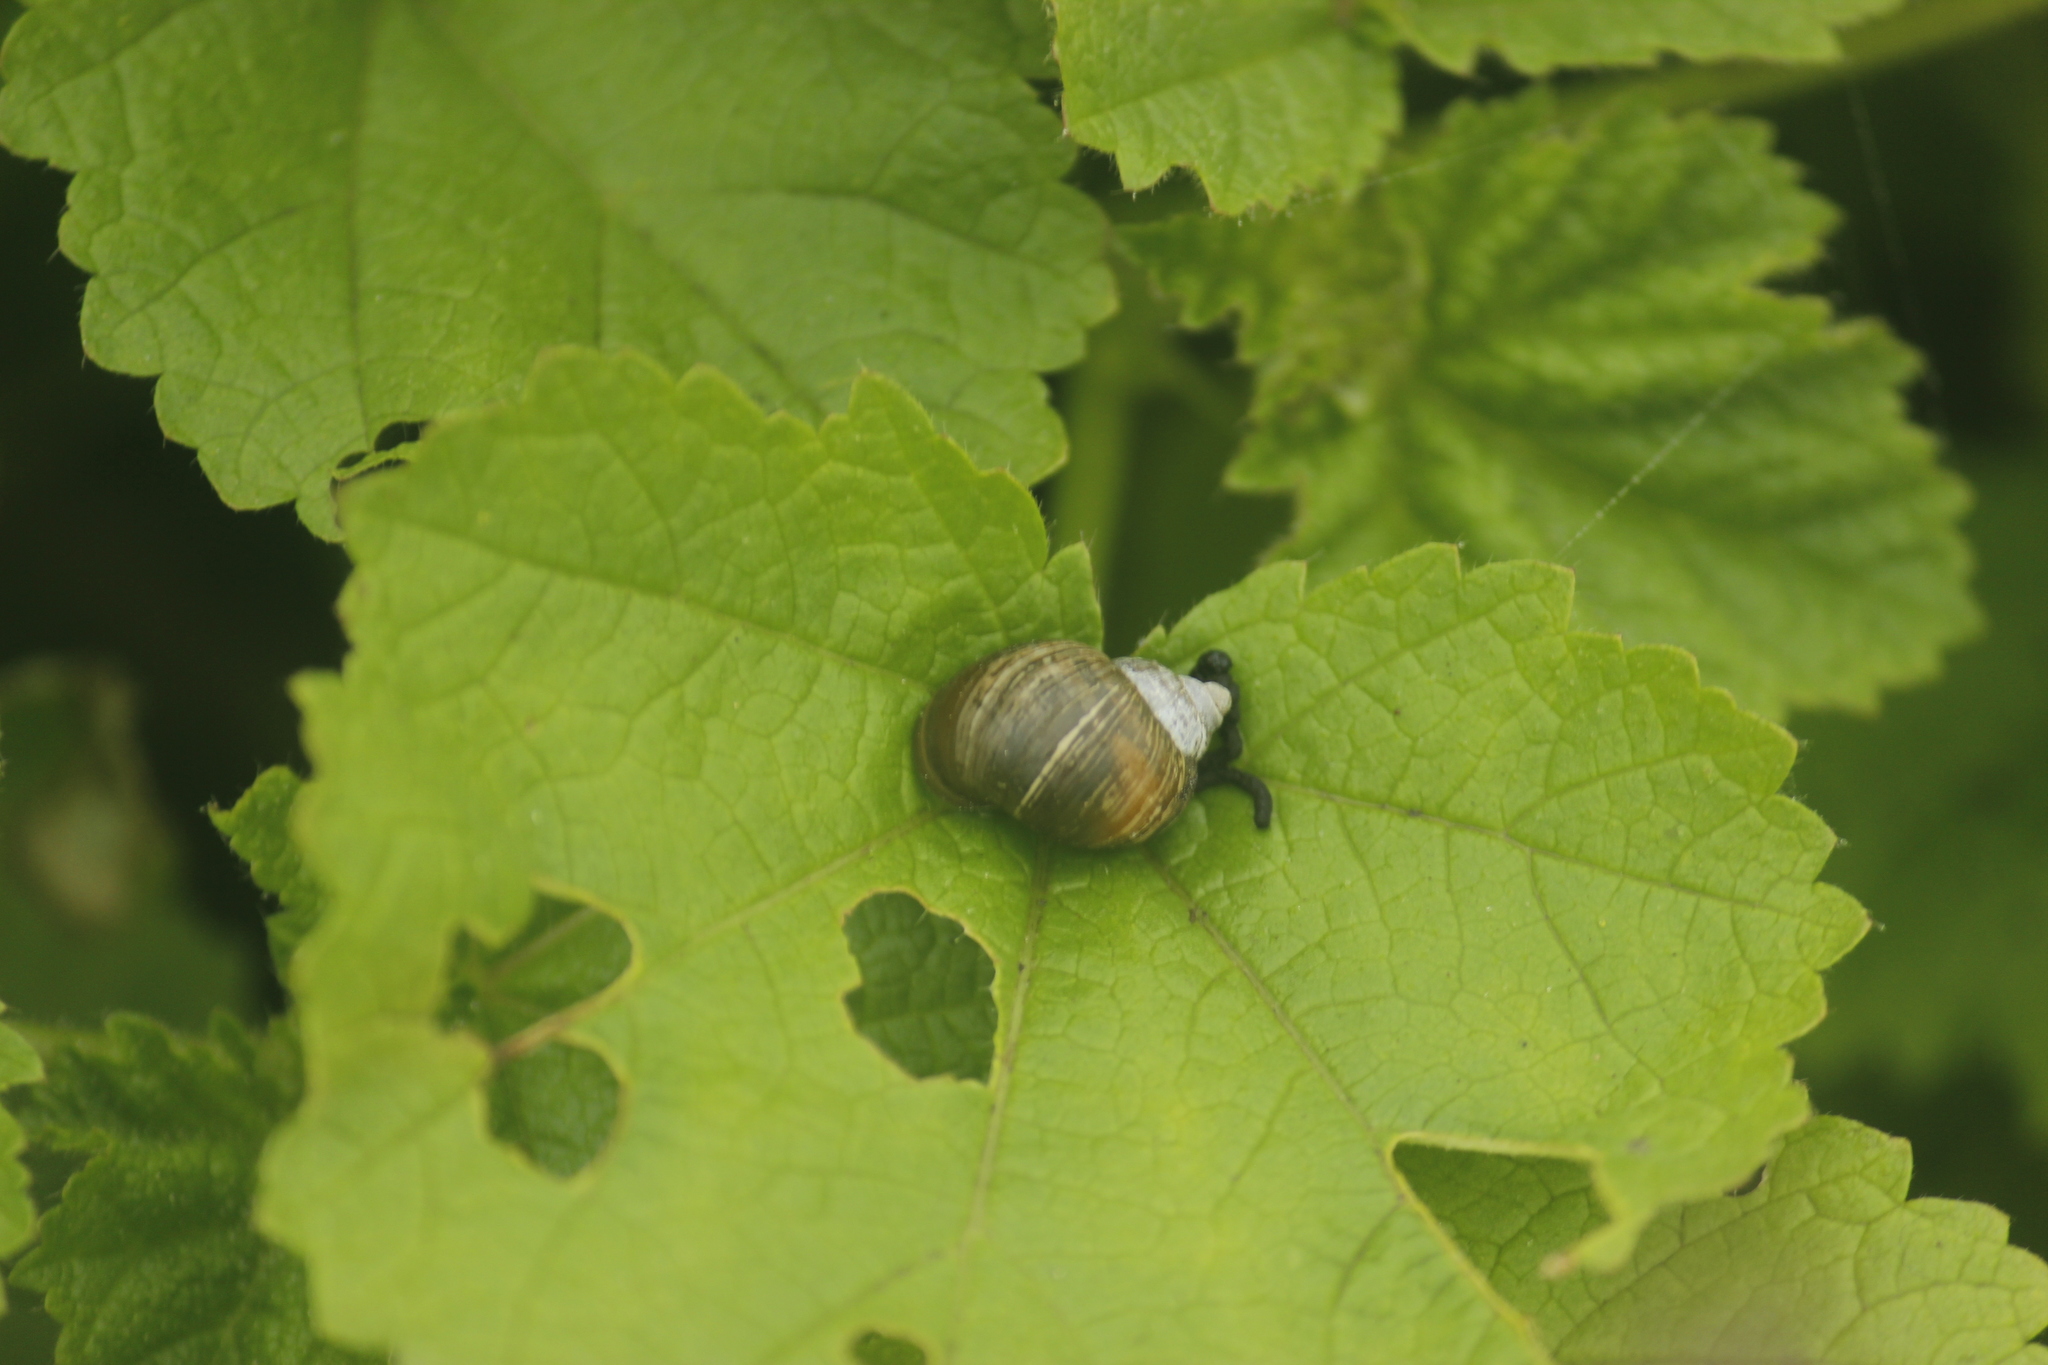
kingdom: Animalia
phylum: Mollusca
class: Gastropoda
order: Stylommatophora
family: Bulimulidae
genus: Bostryx
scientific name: Bostryx conspersus
